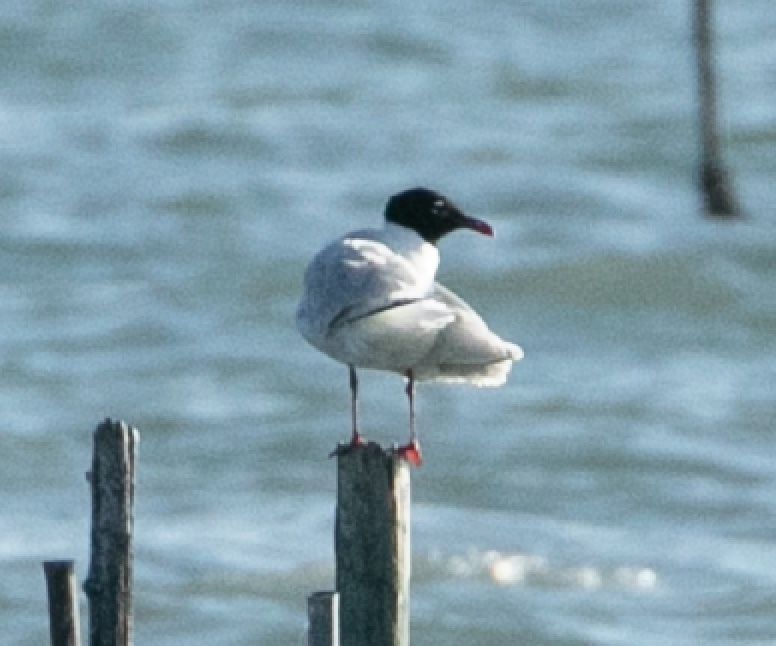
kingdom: Animalia
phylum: Chordata
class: Aves
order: Charadriiformes
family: Laridae
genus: Ichthyaetus
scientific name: Ichthyaetus melanocephalus
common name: Mediterranean gull
